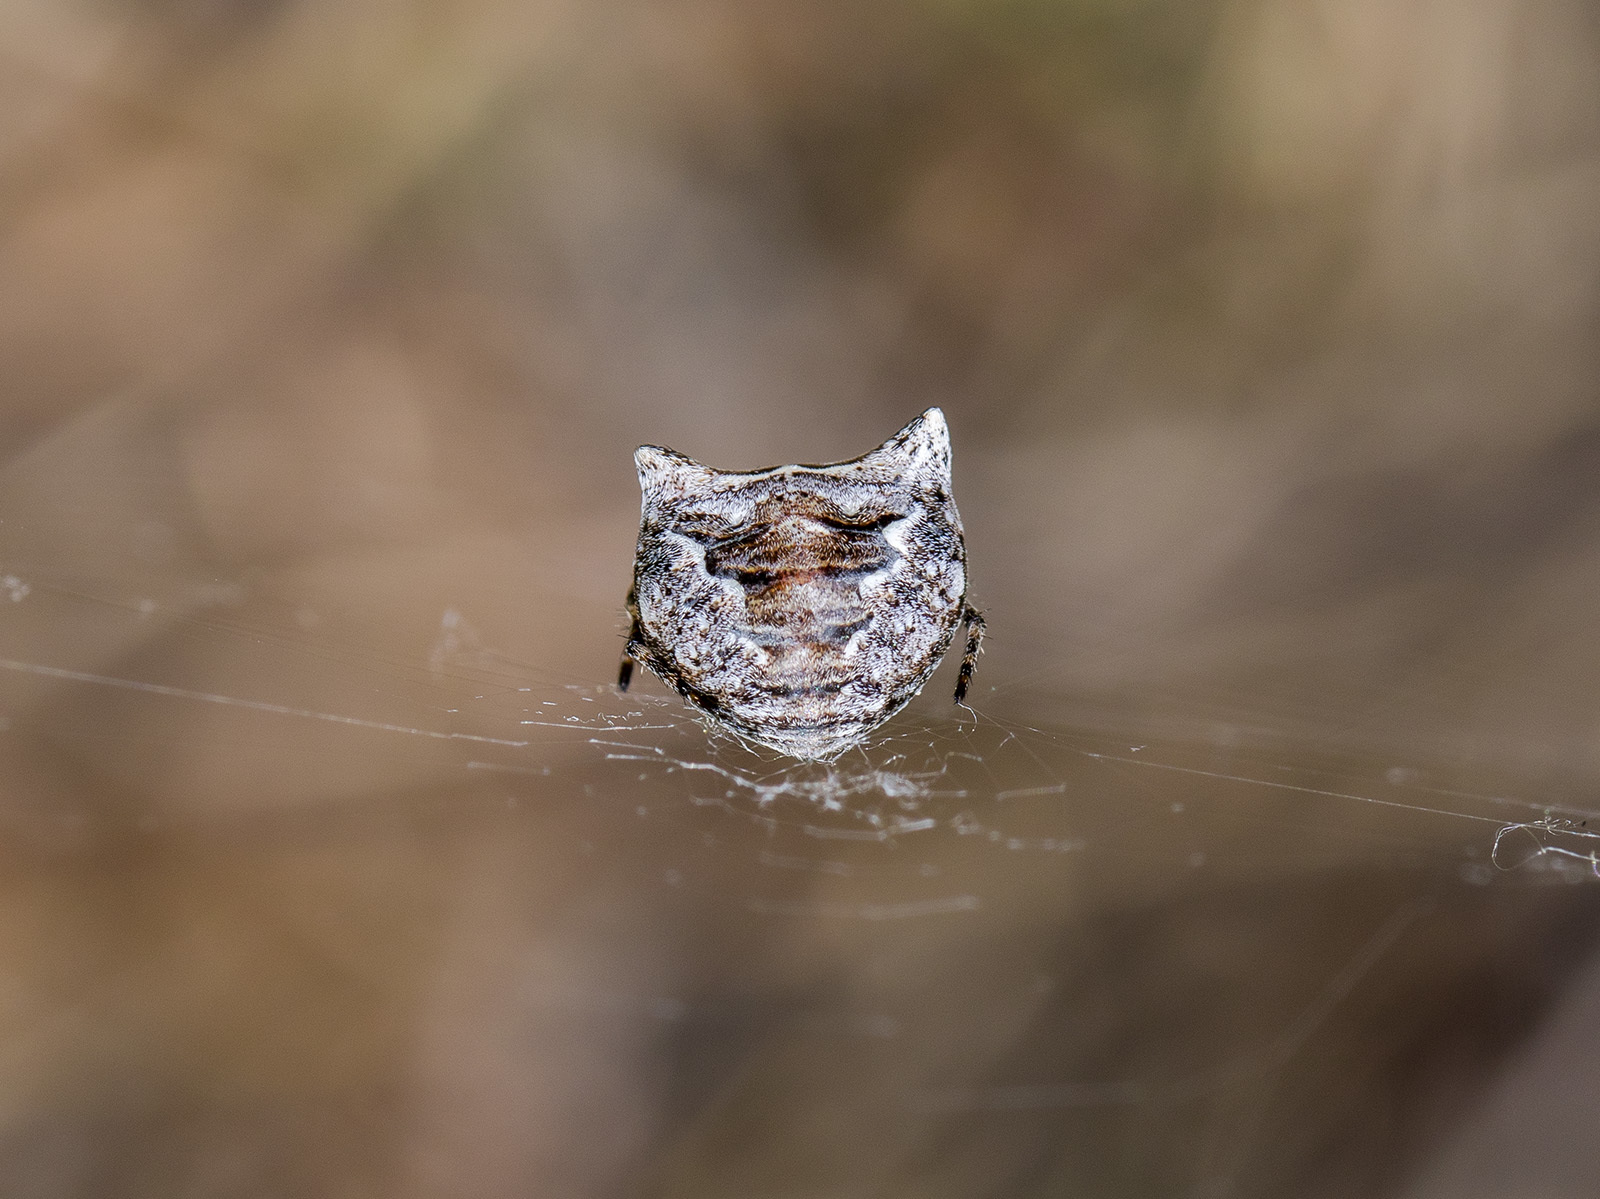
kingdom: Animalia
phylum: Arthropoda
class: Arachnida
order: Araneae
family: Araneidae
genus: Gibbaranea
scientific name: Gibbaranea ullrichi
